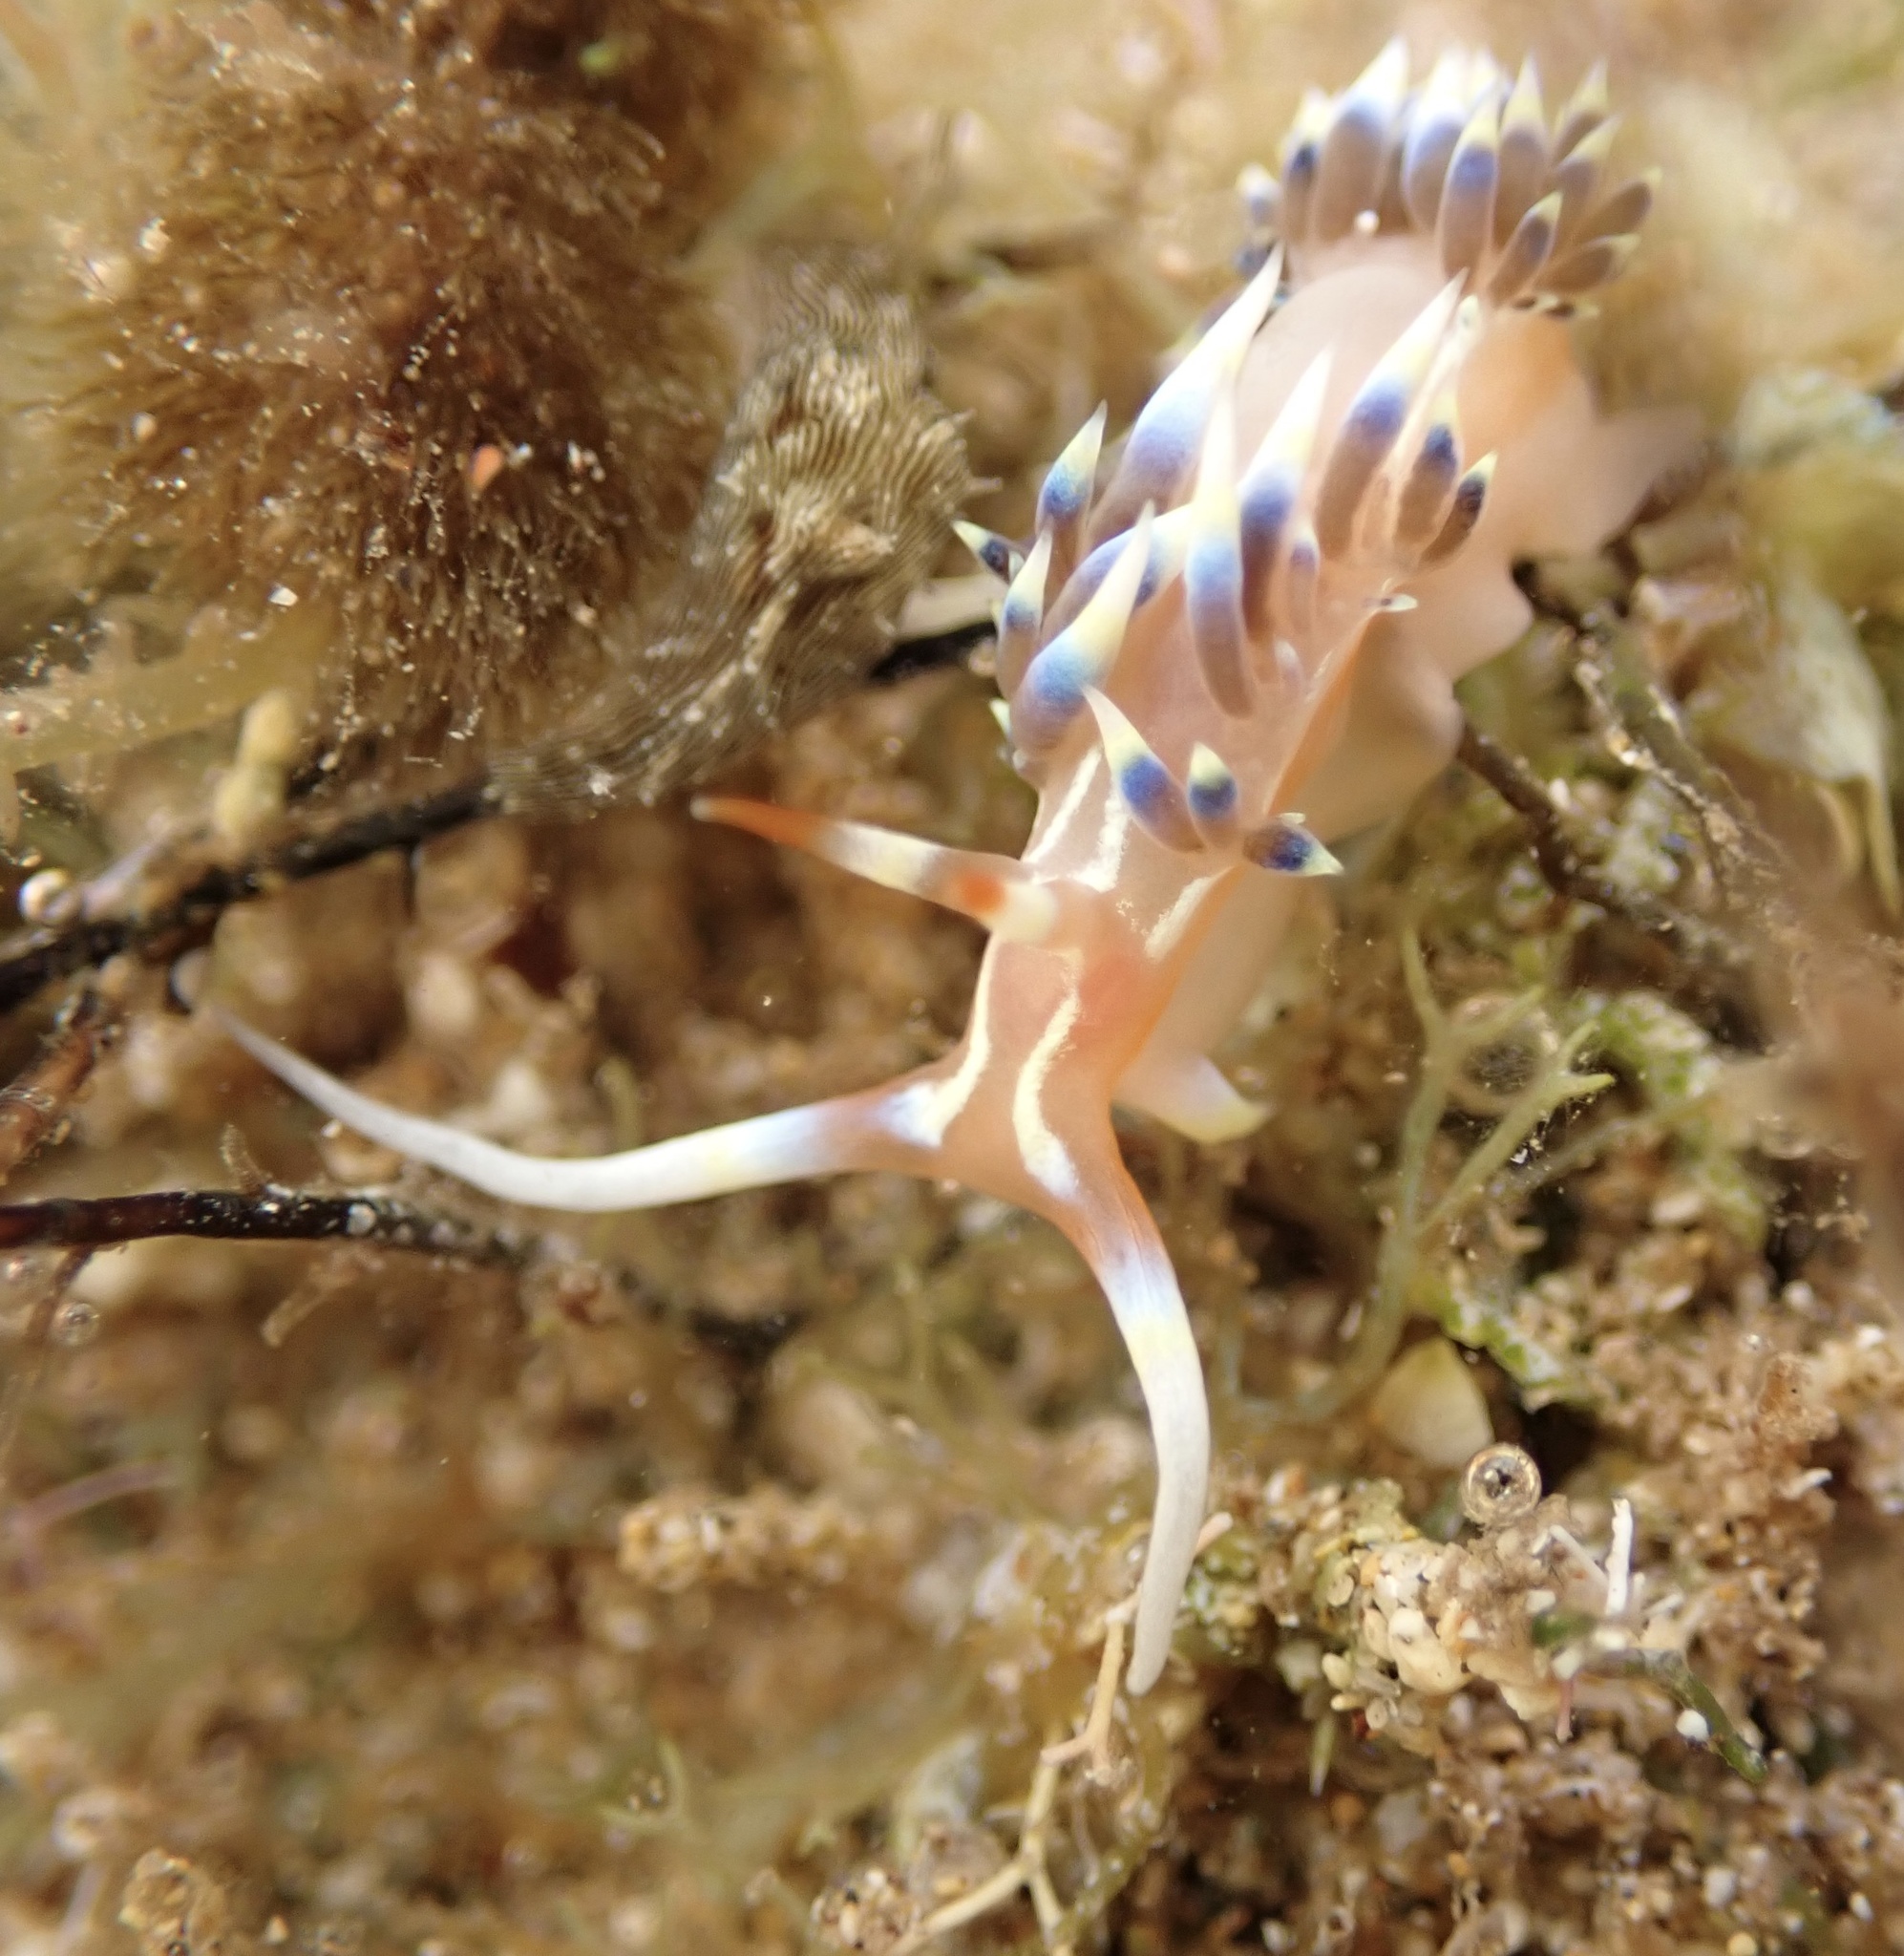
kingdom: Animalia
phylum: Mollusca
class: Gastropoda
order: Nudibranchia
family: Facelinidae
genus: Caloria
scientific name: Caloria indica
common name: Sea slug
